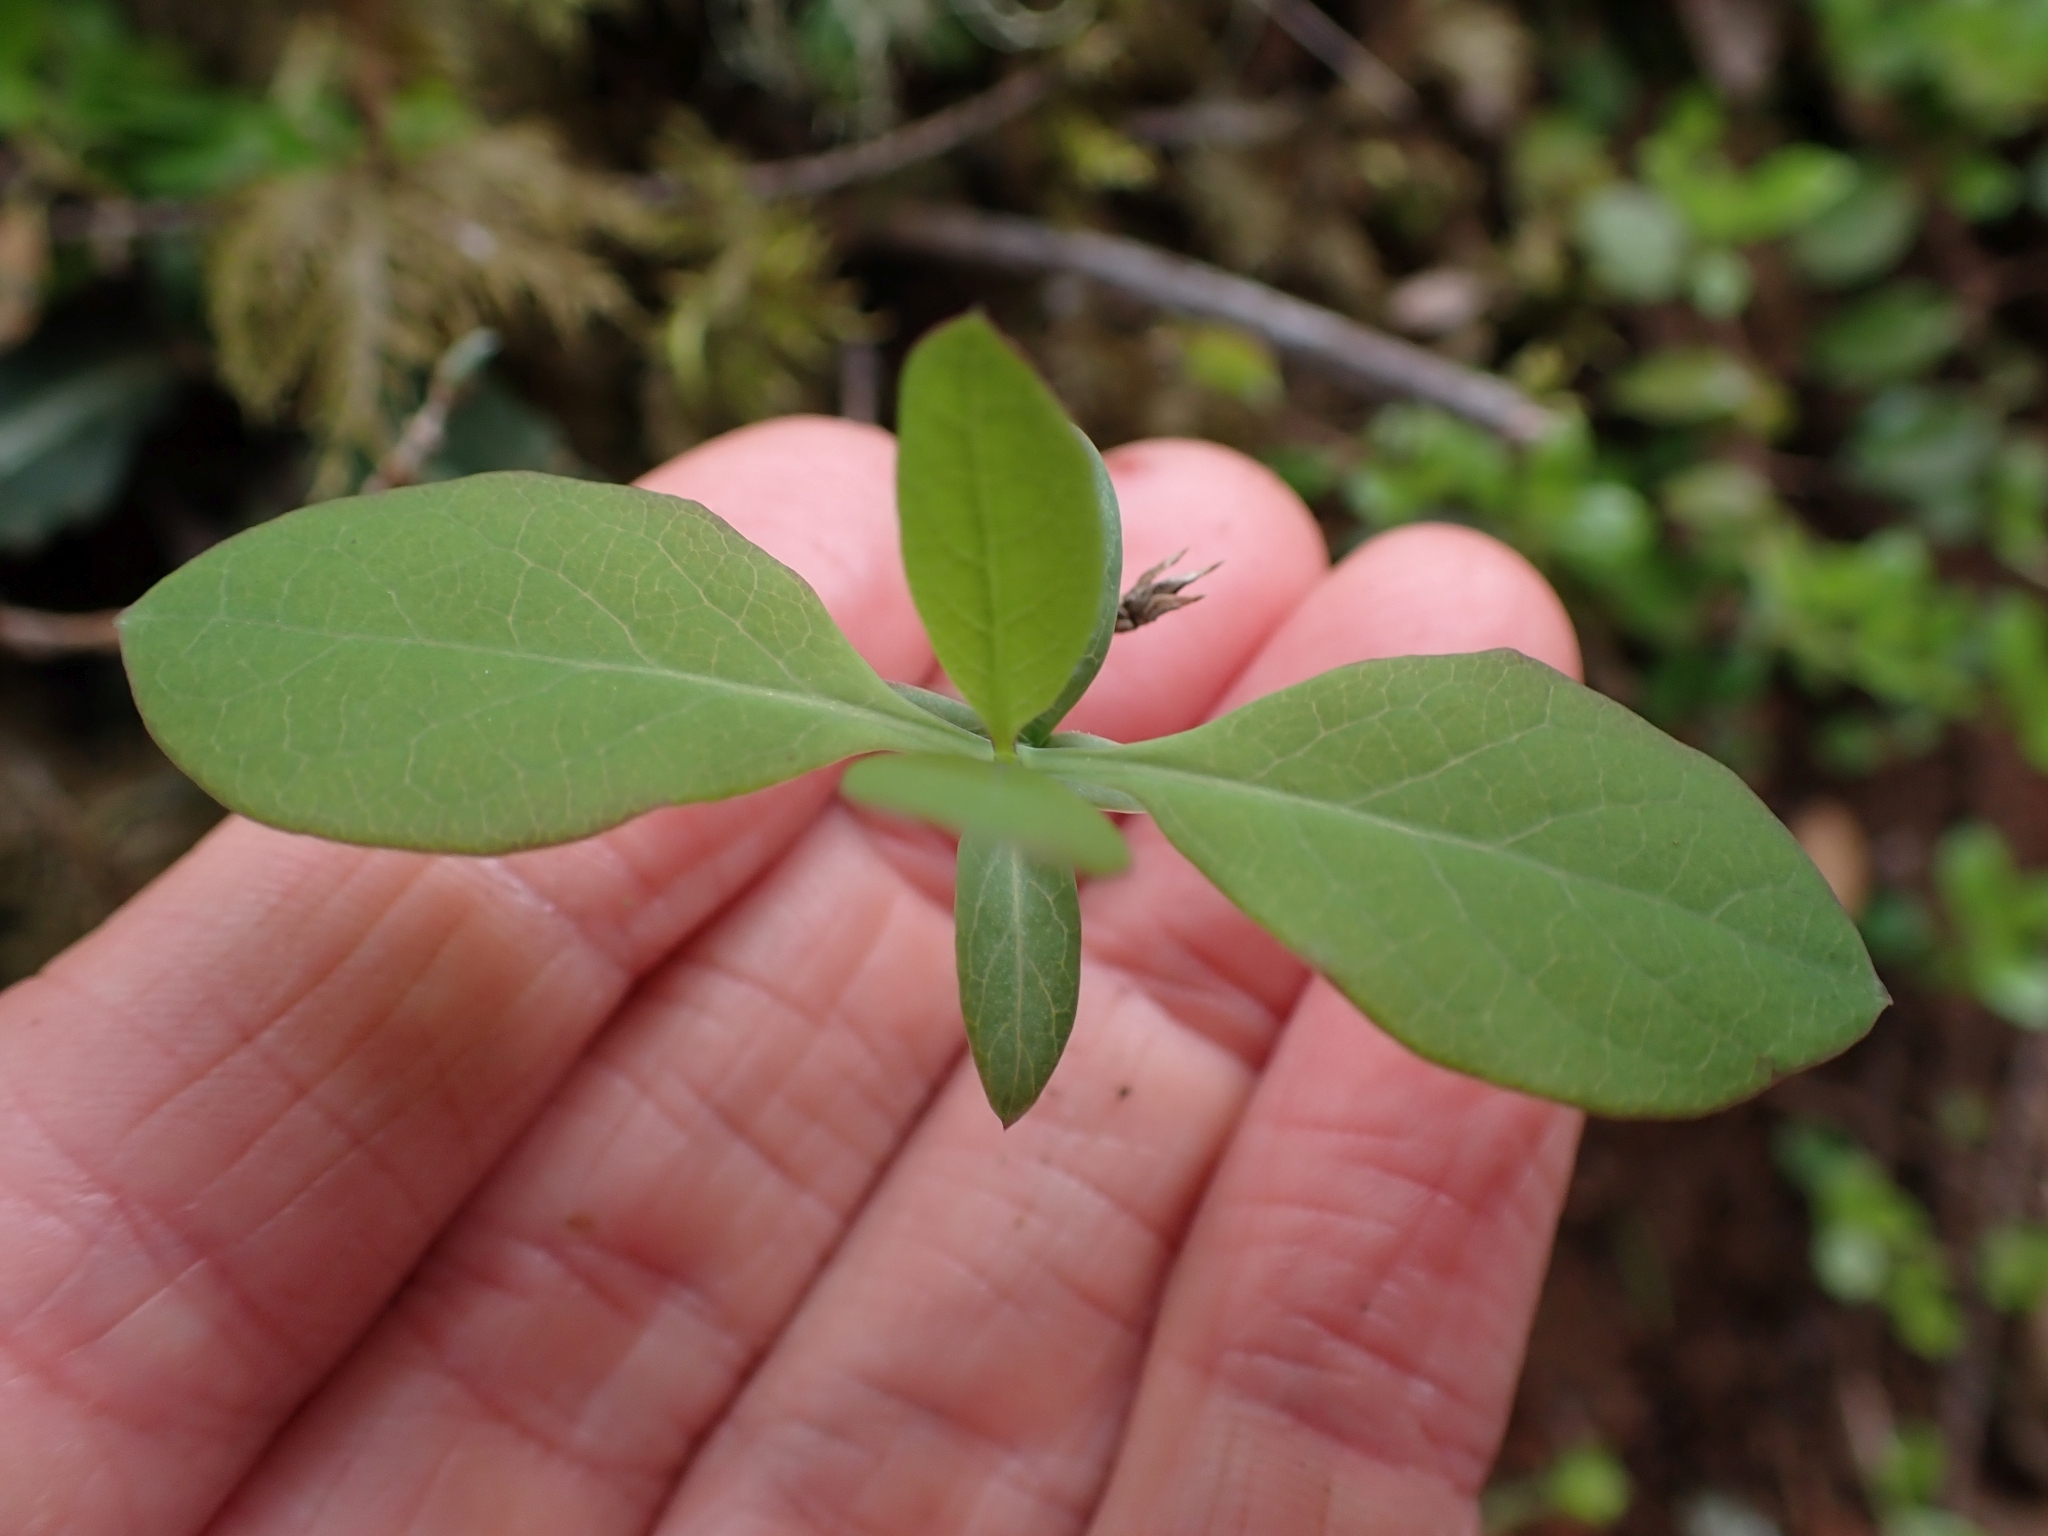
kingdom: Plantae
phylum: Tracheophyta
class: Magnoliopsida
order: Dipsacales
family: Caprifoliaceae
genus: Lonicera
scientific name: Lonicera ciliosa
